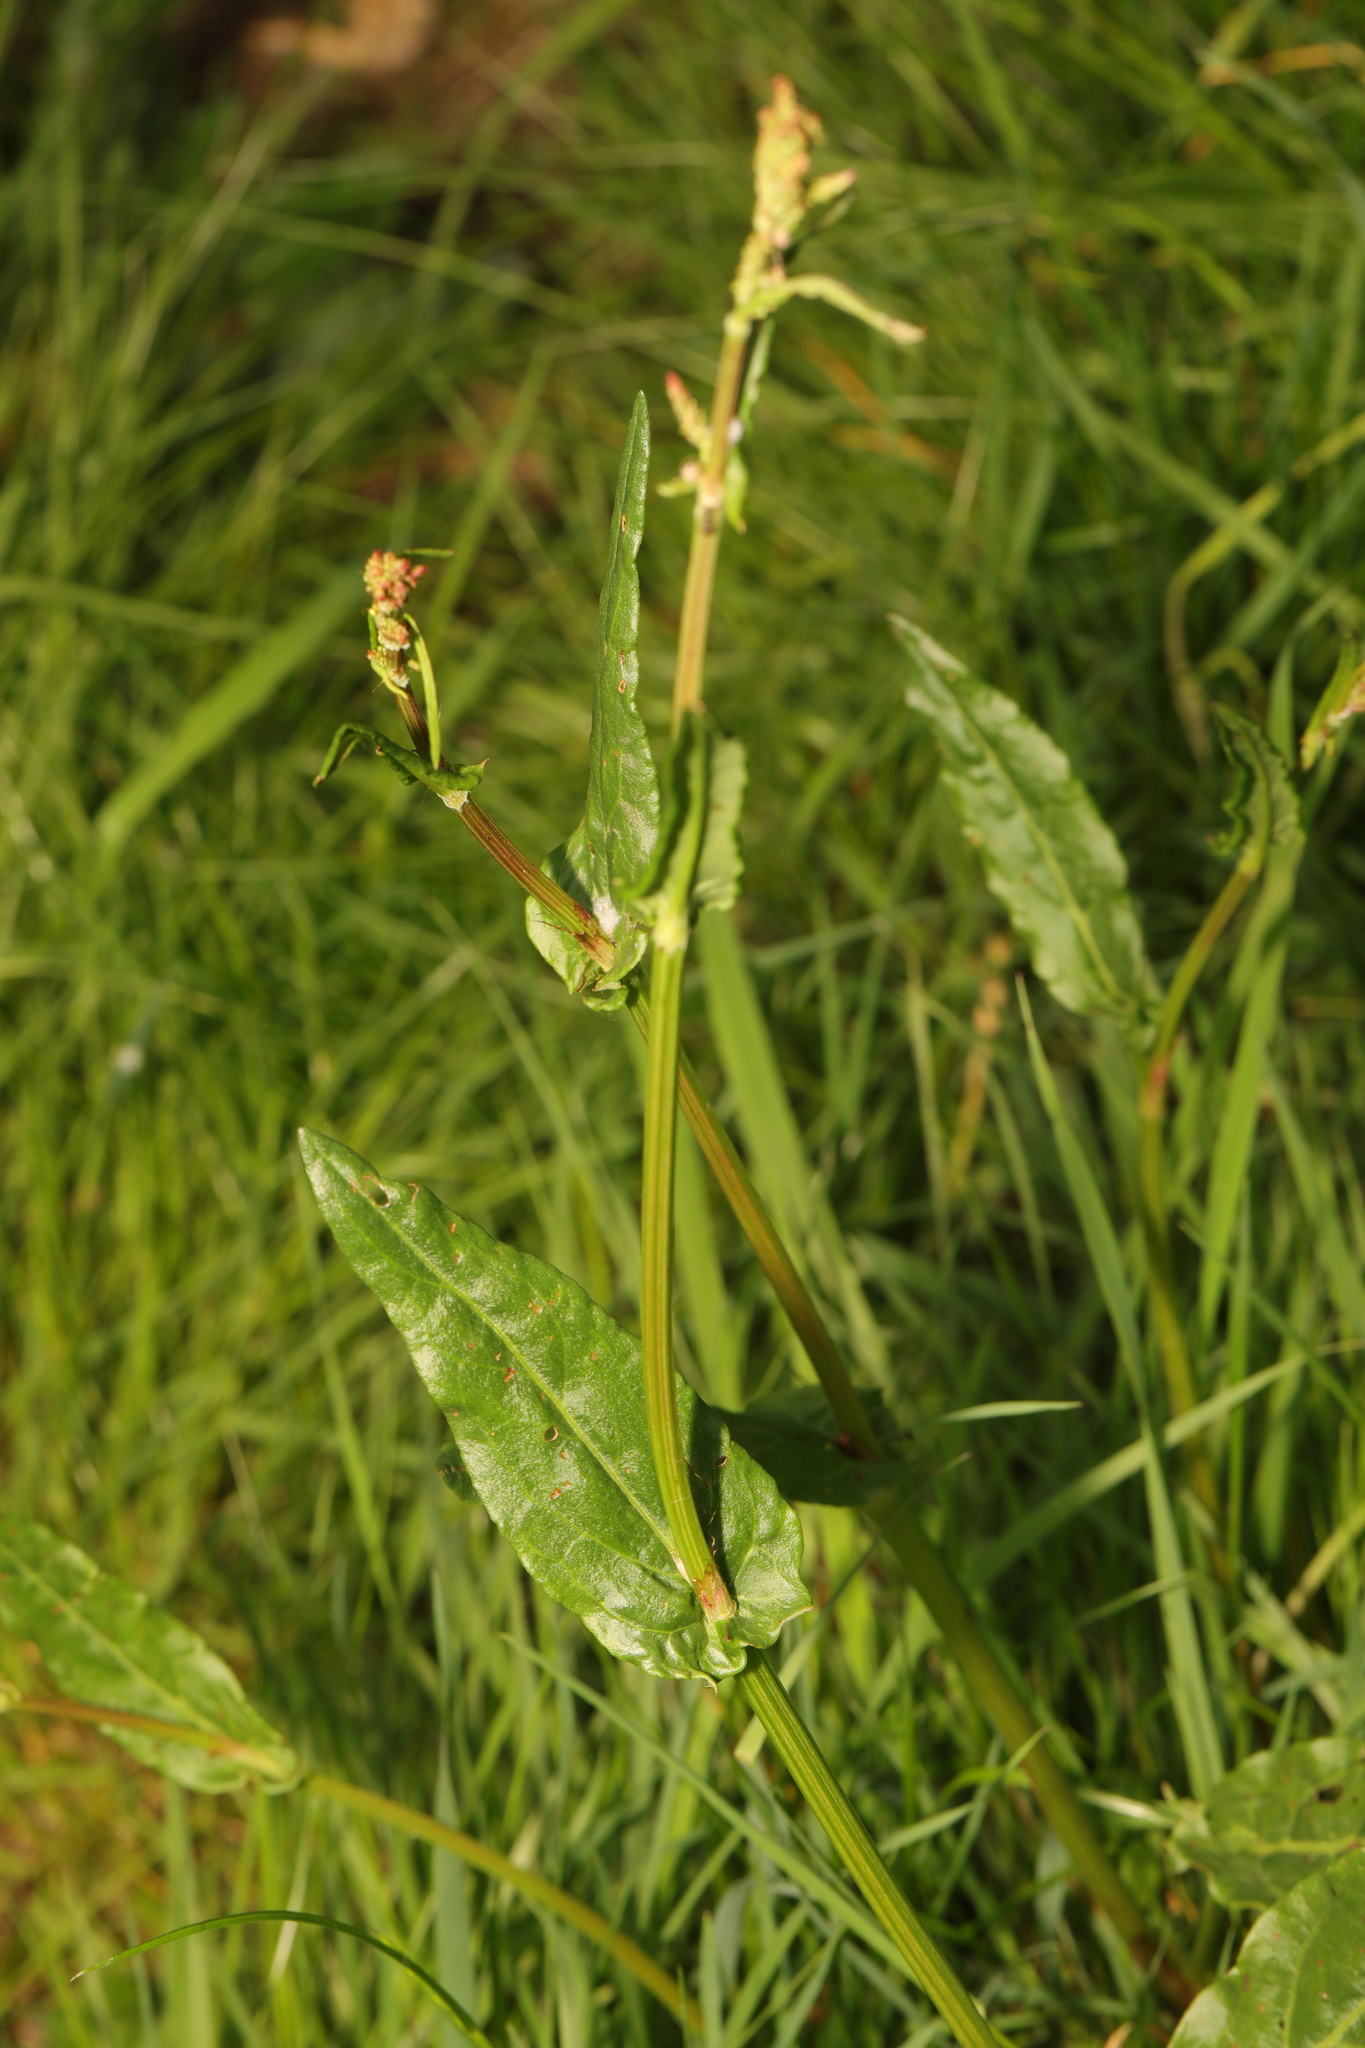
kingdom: Plantae
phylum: Tracheophyta
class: Magnoliopsida
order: Caryophyllales
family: Polygonaceae
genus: Rumex
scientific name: Rumex acetosa
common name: Garden sorrel
